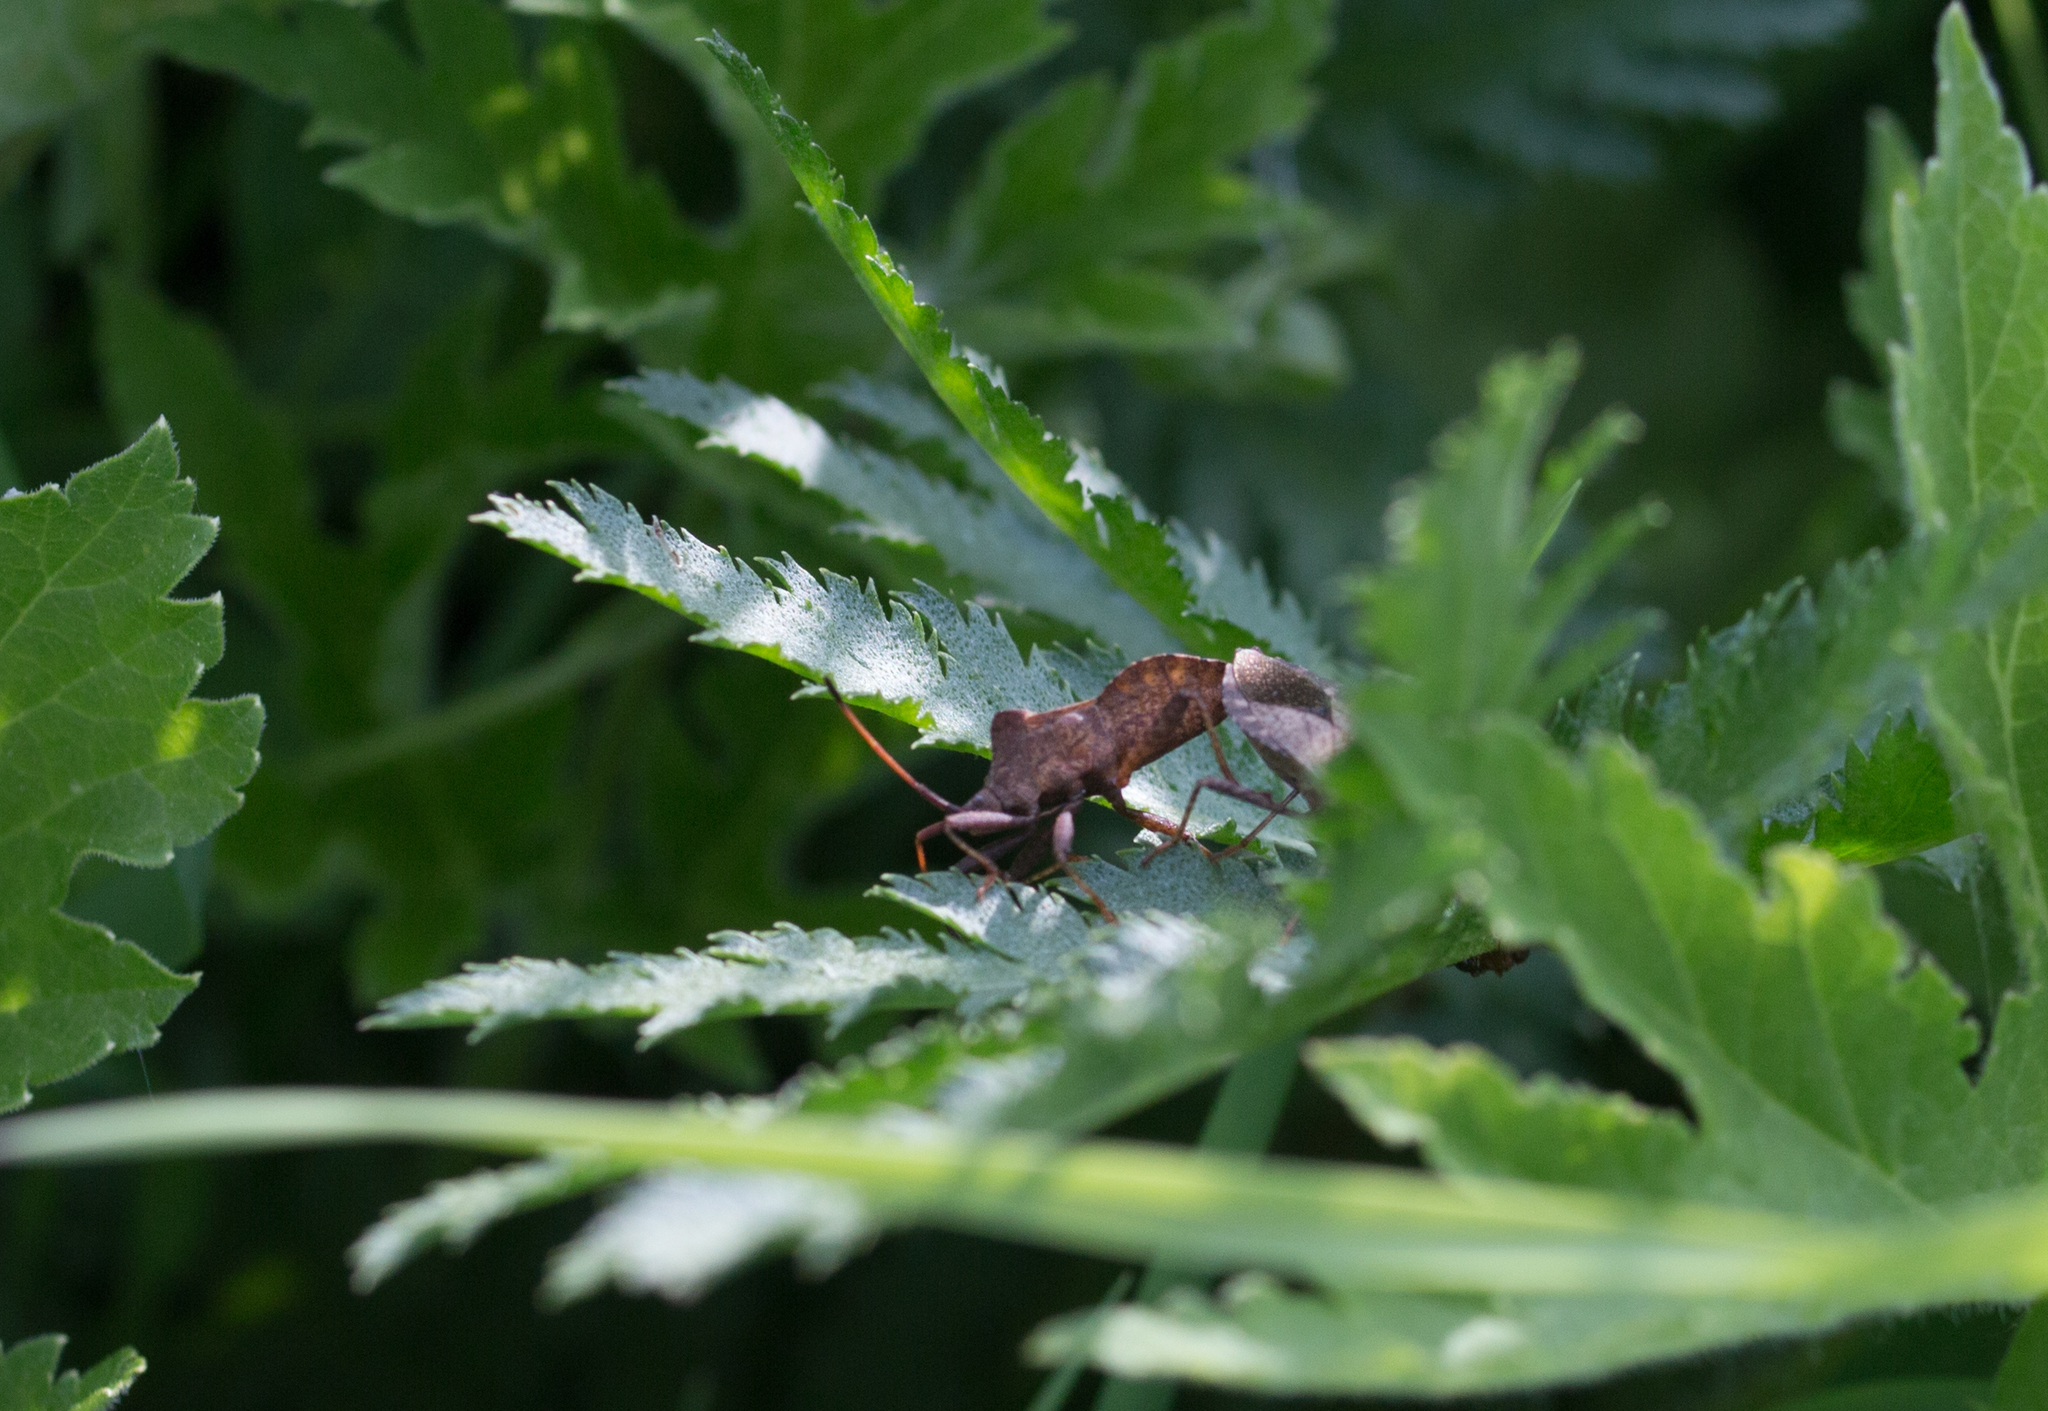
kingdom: Animalia
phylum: Arthropoda
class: Insecta
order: Hemiptera
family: Coreidae
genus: Coreus
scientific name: Coreus marginatus
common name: Dock bug
